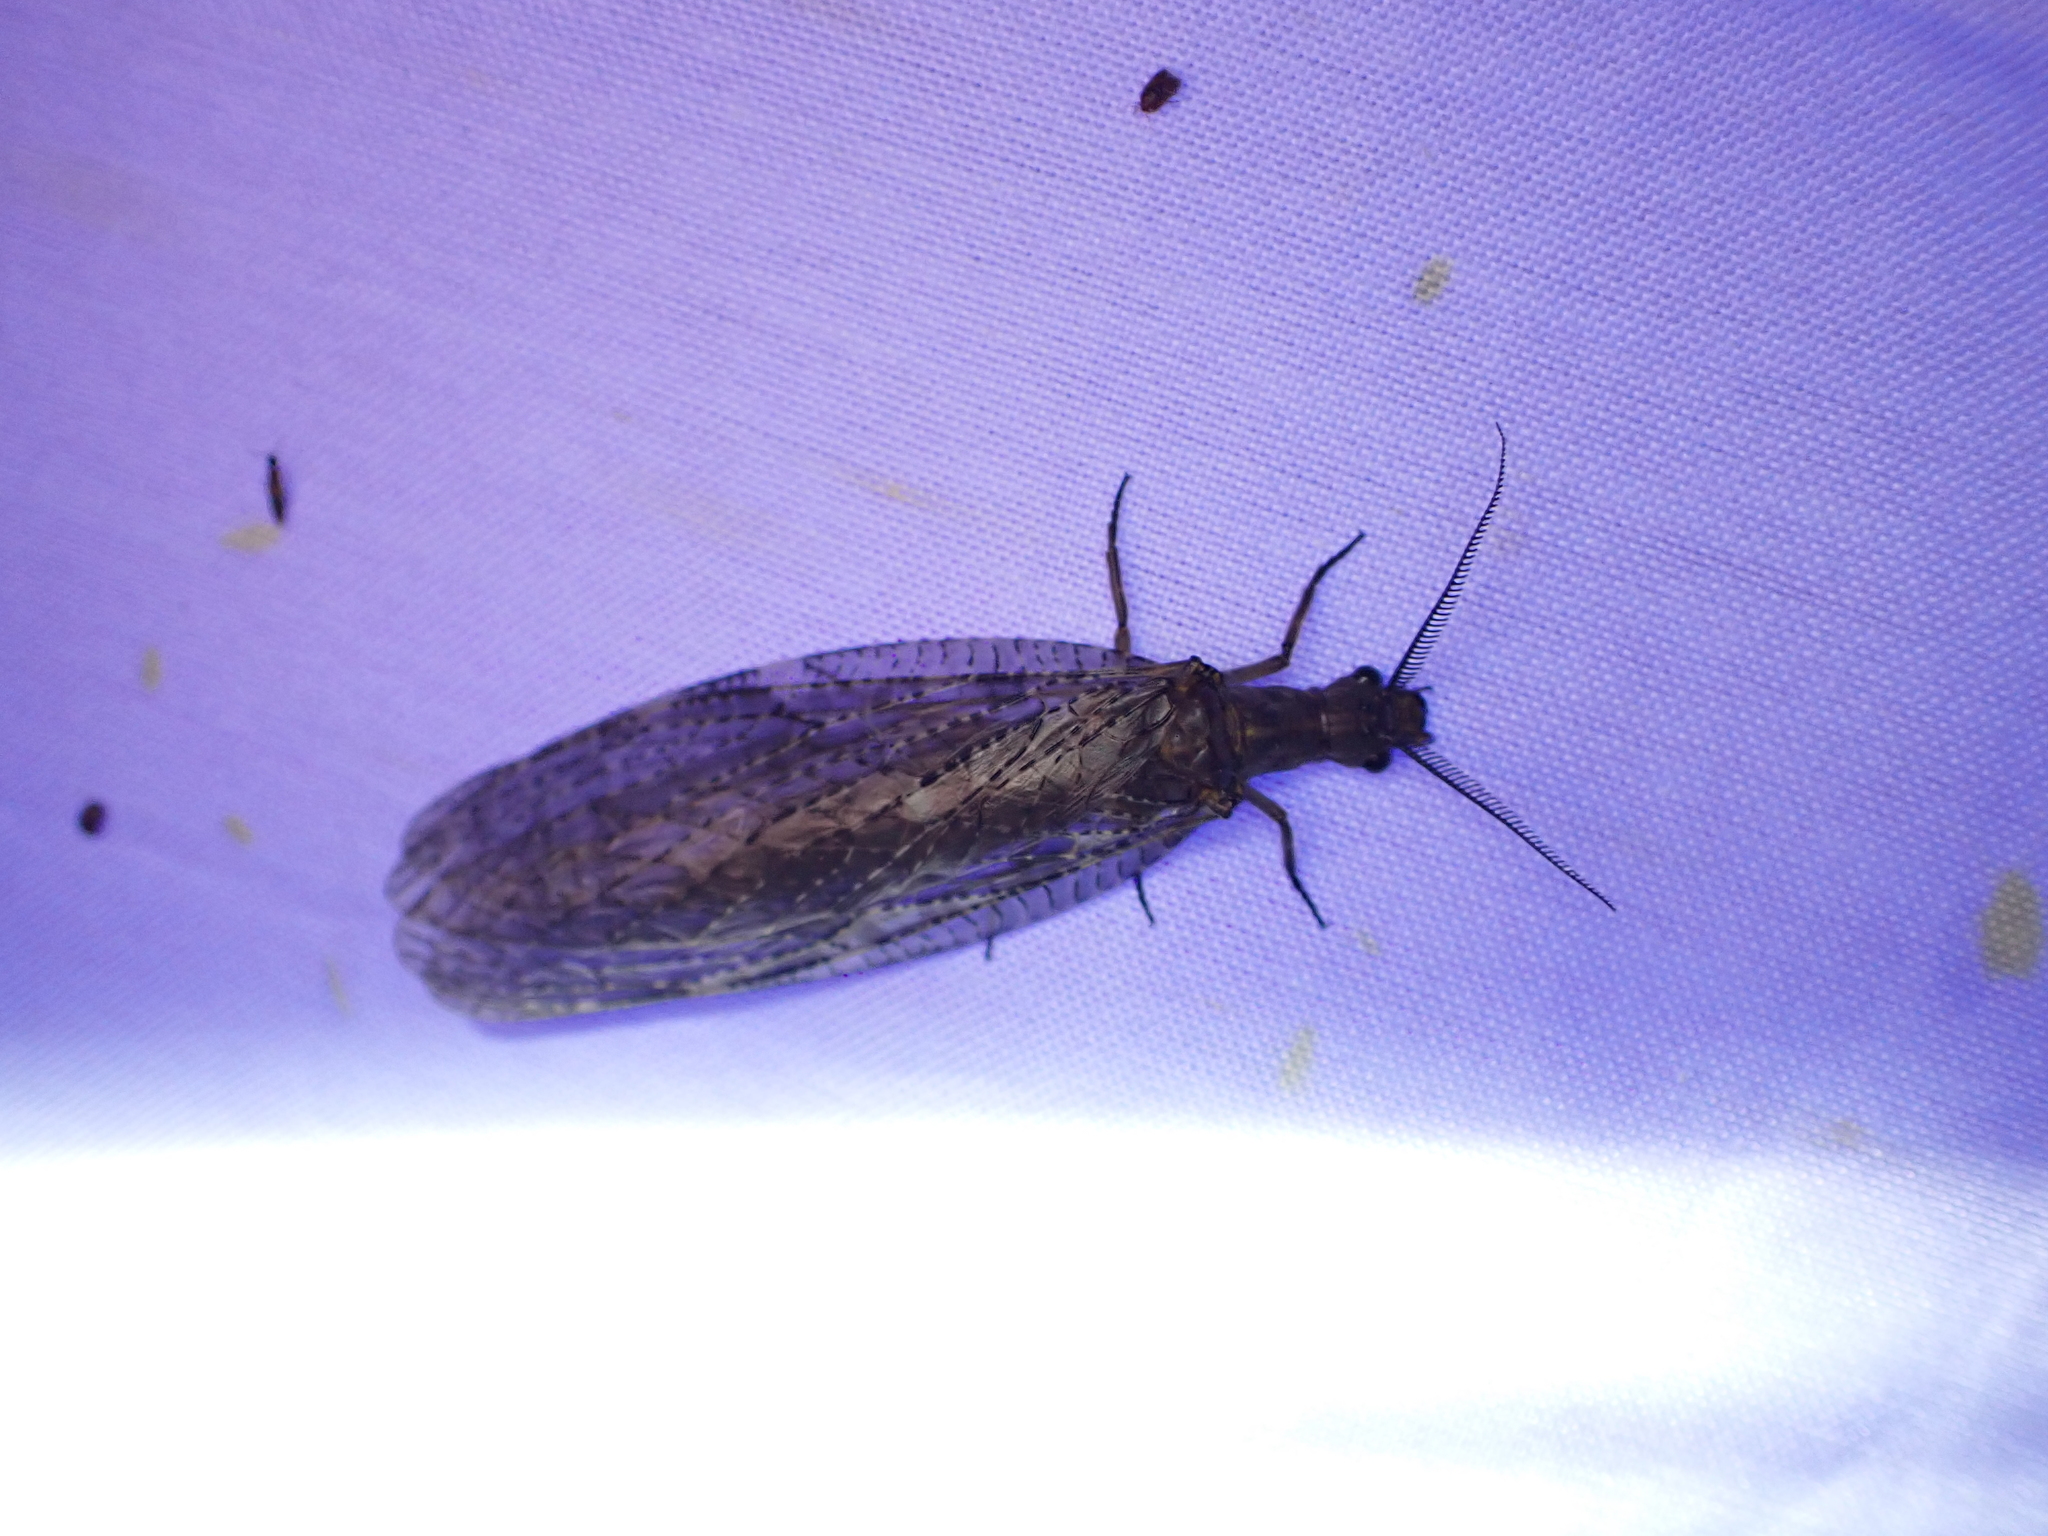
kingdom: Animalia
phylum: Arthropoda
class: Insecta
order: Megaloptera
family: Corydalidae
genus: Chauliodes
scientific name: Chauliodes pectinicornis
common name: Summer fishfly
